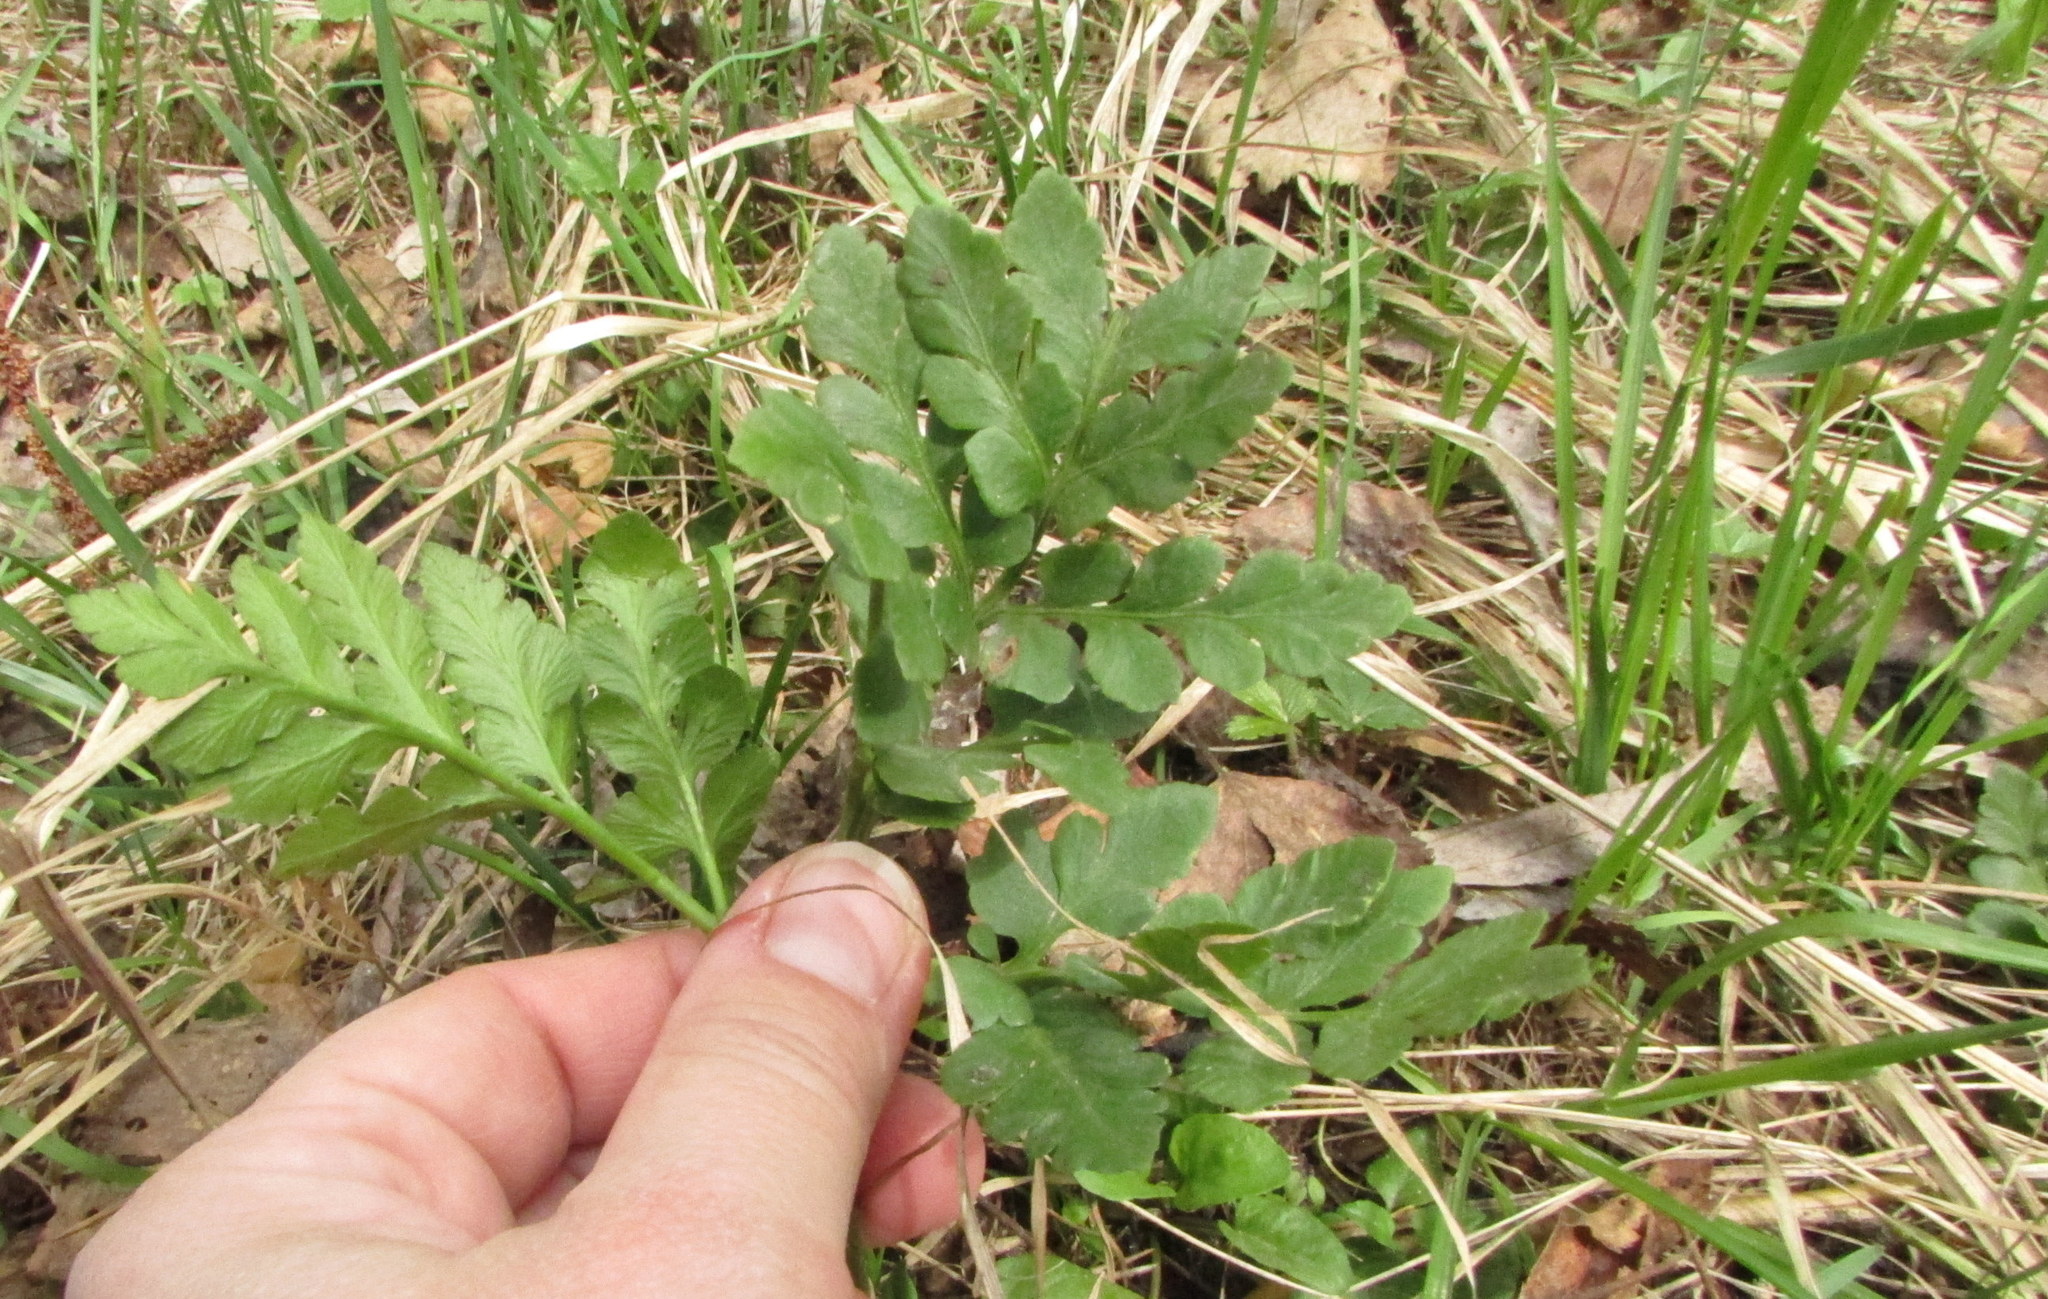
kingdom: Plantae
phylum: Tracheophyta
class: Polypodiopsida
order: Ophioglossales
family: Ophioglossaceae
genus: Sceptridium
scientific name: Sceptridium multifidum
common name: Leathery grape fern
